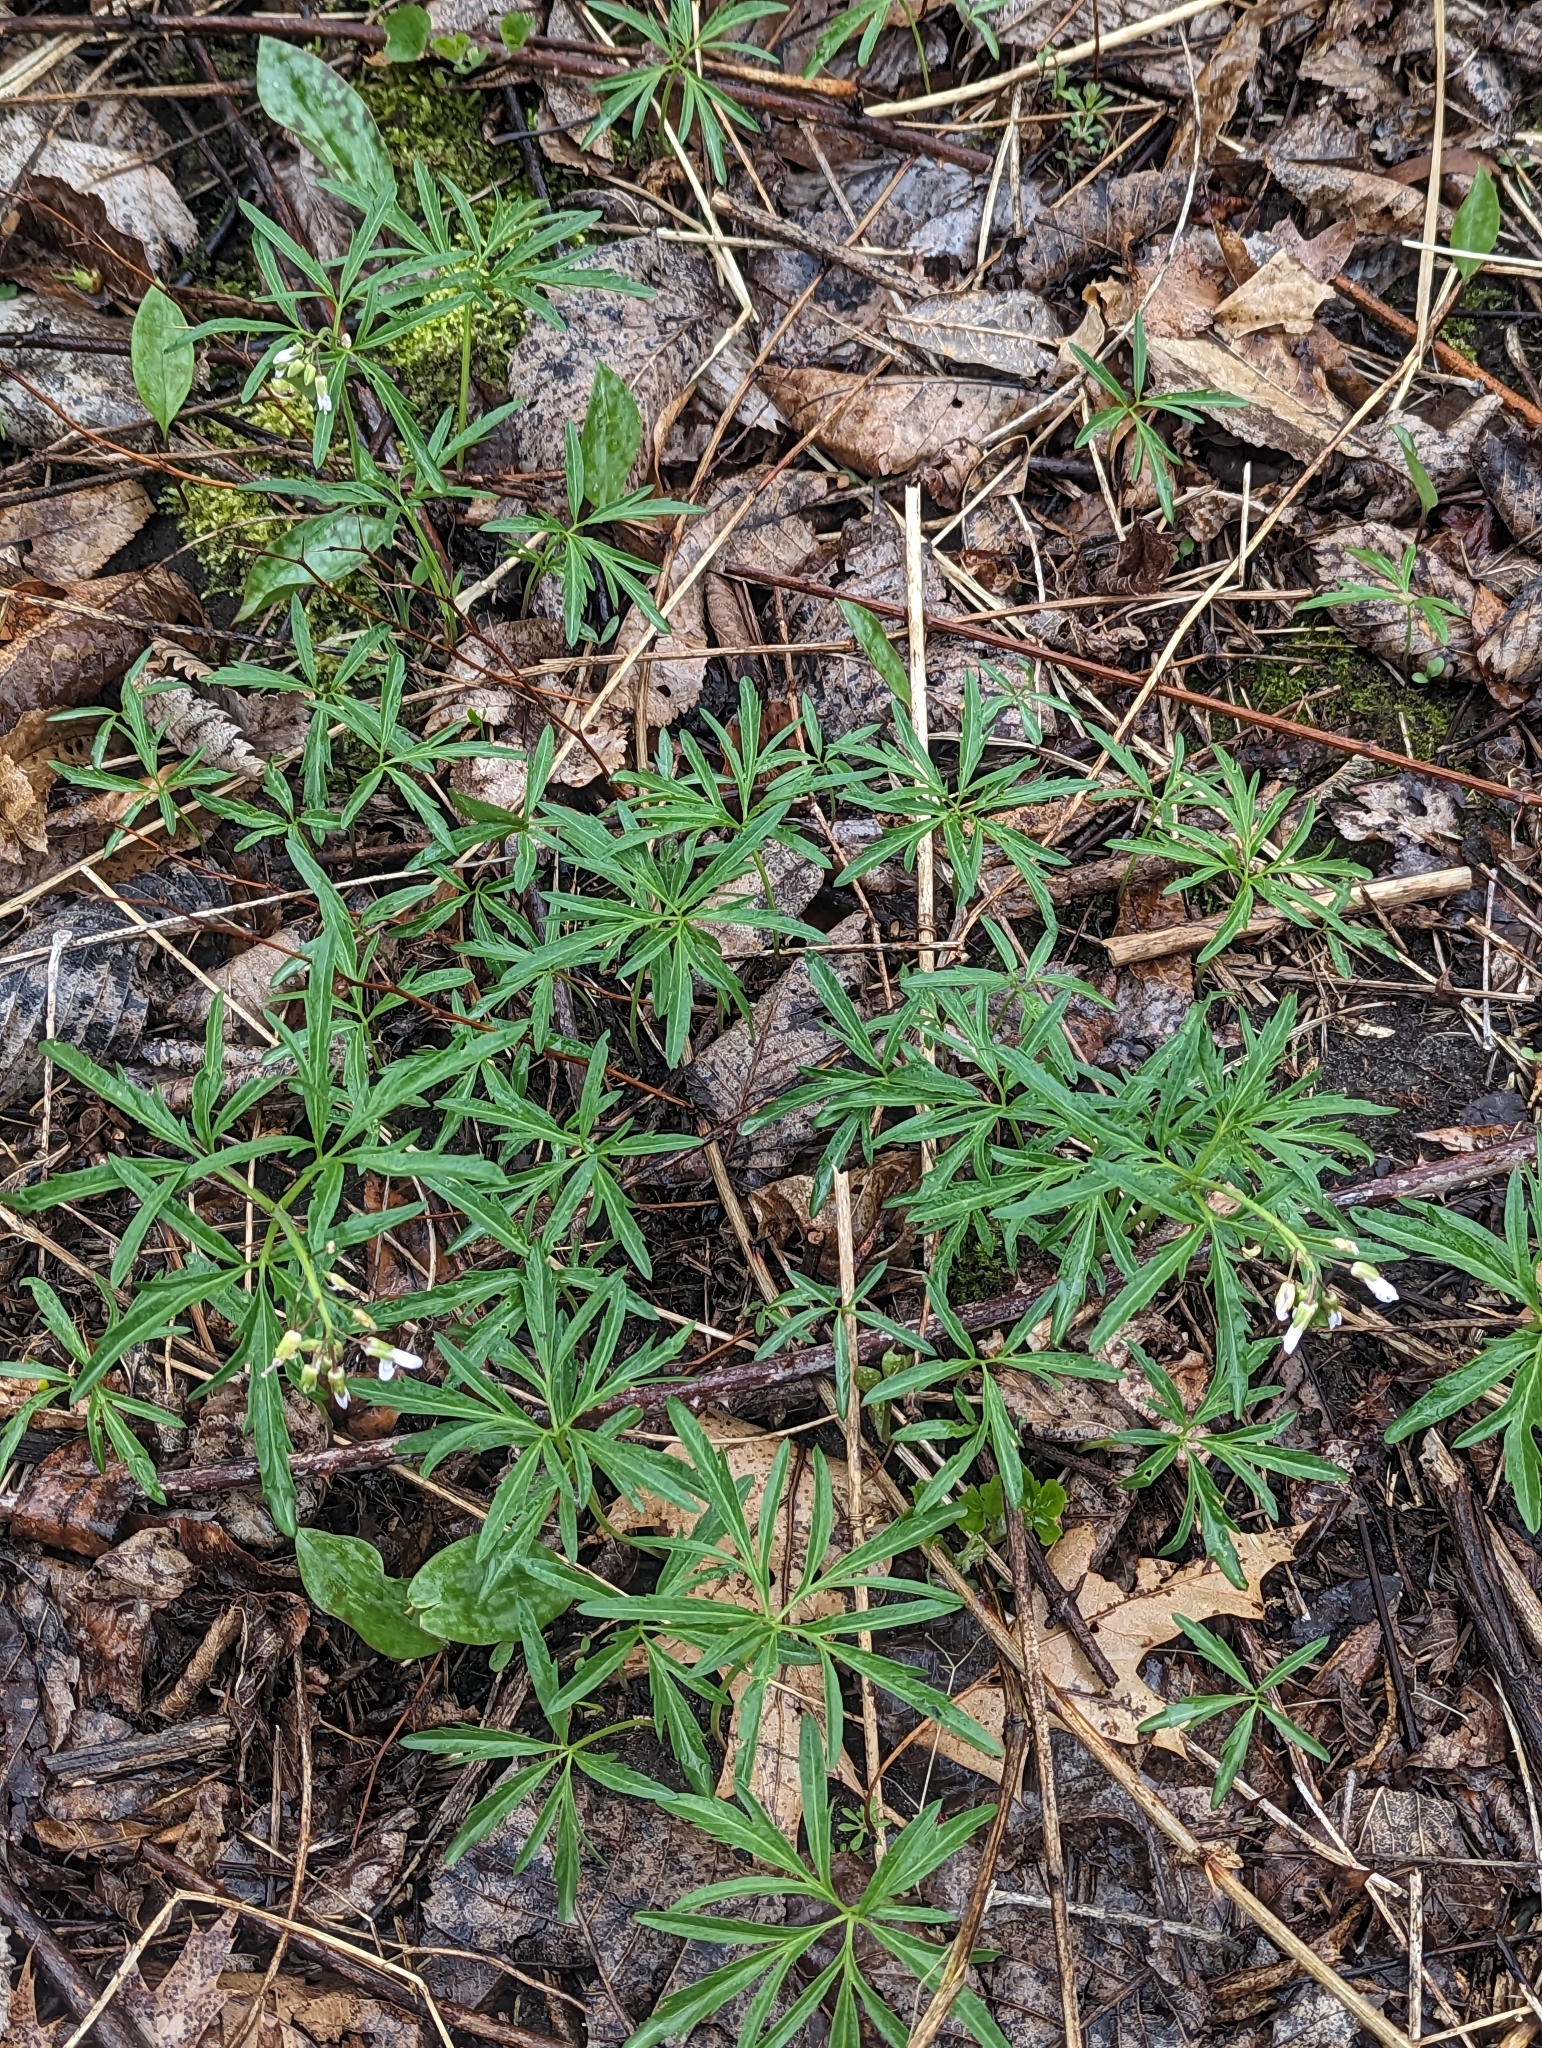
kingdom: Plantae
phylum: Tracheophyta
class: Magnoliopsida
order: Brassicales
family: Brassicaceae
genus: Cardamine
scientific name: Cardamine concatenata
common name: Cut-leaf toothcup
